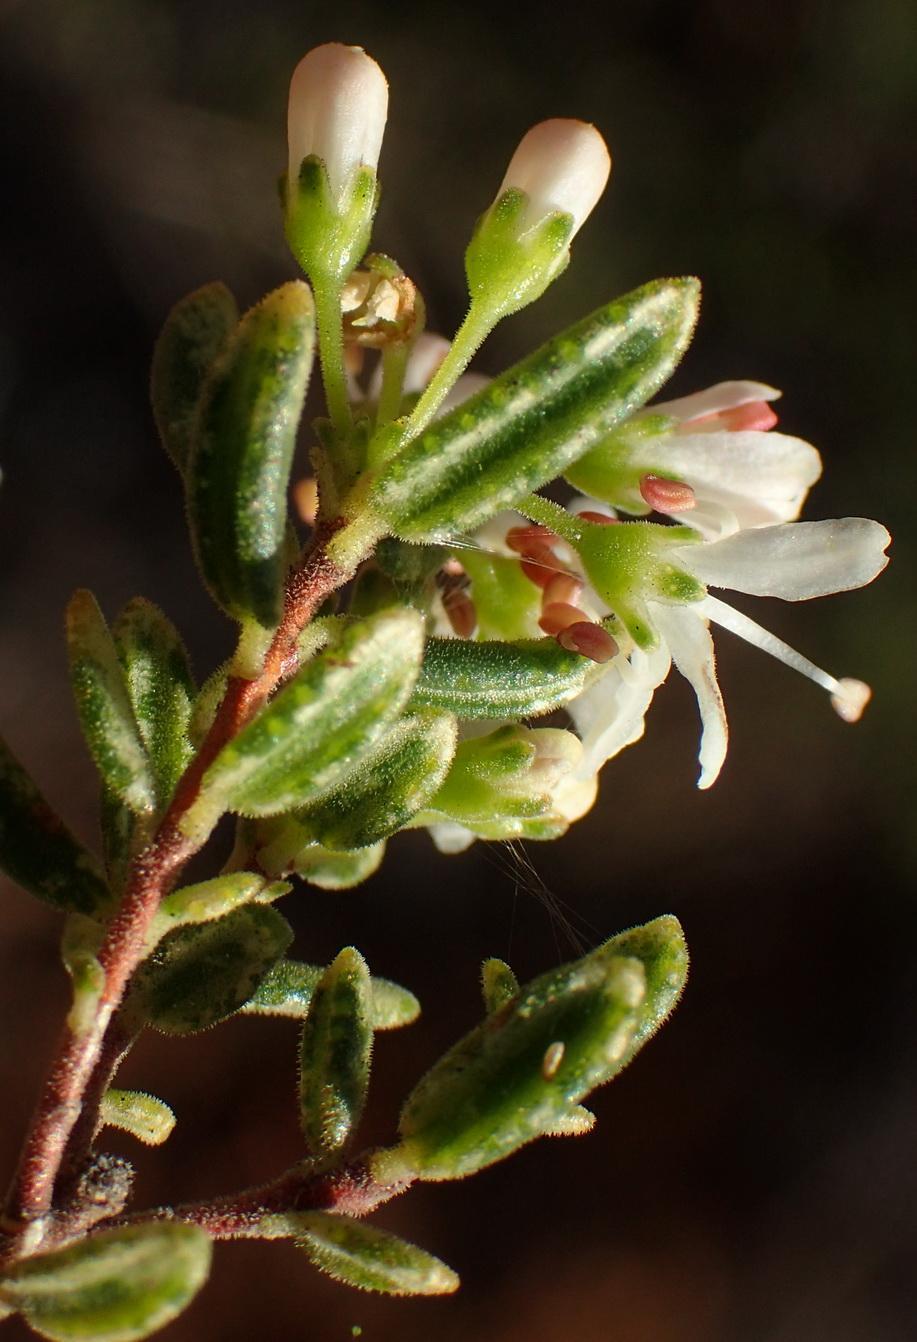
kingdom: Plantae
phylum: Tracheophyta
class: Magnoliopsida
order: Sapindales
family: Rutaceae
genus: Agathosma
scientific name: Agathosma mundtii
